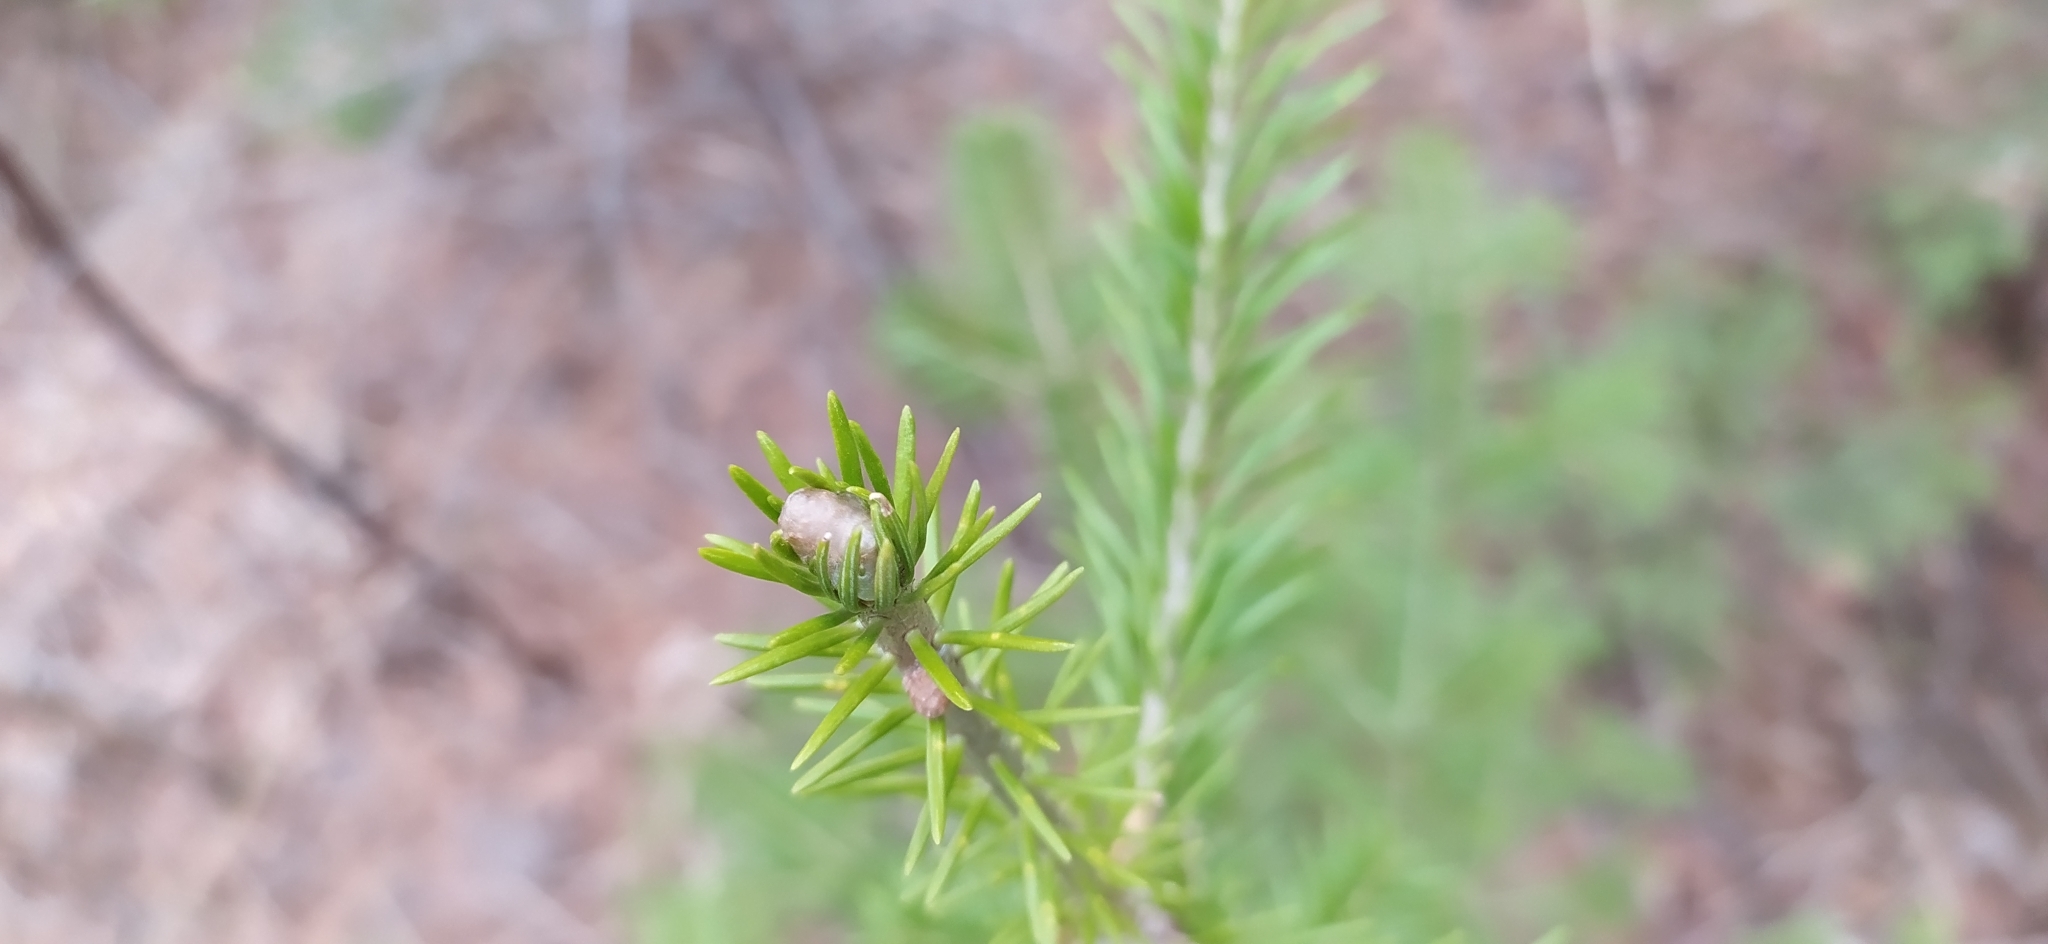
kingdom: Plantae
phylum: Tracheophyta
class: Pinopsida
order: Pinales
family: Pinaceae
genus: Abies
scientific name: Abies sibirica
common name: Siberian fir
